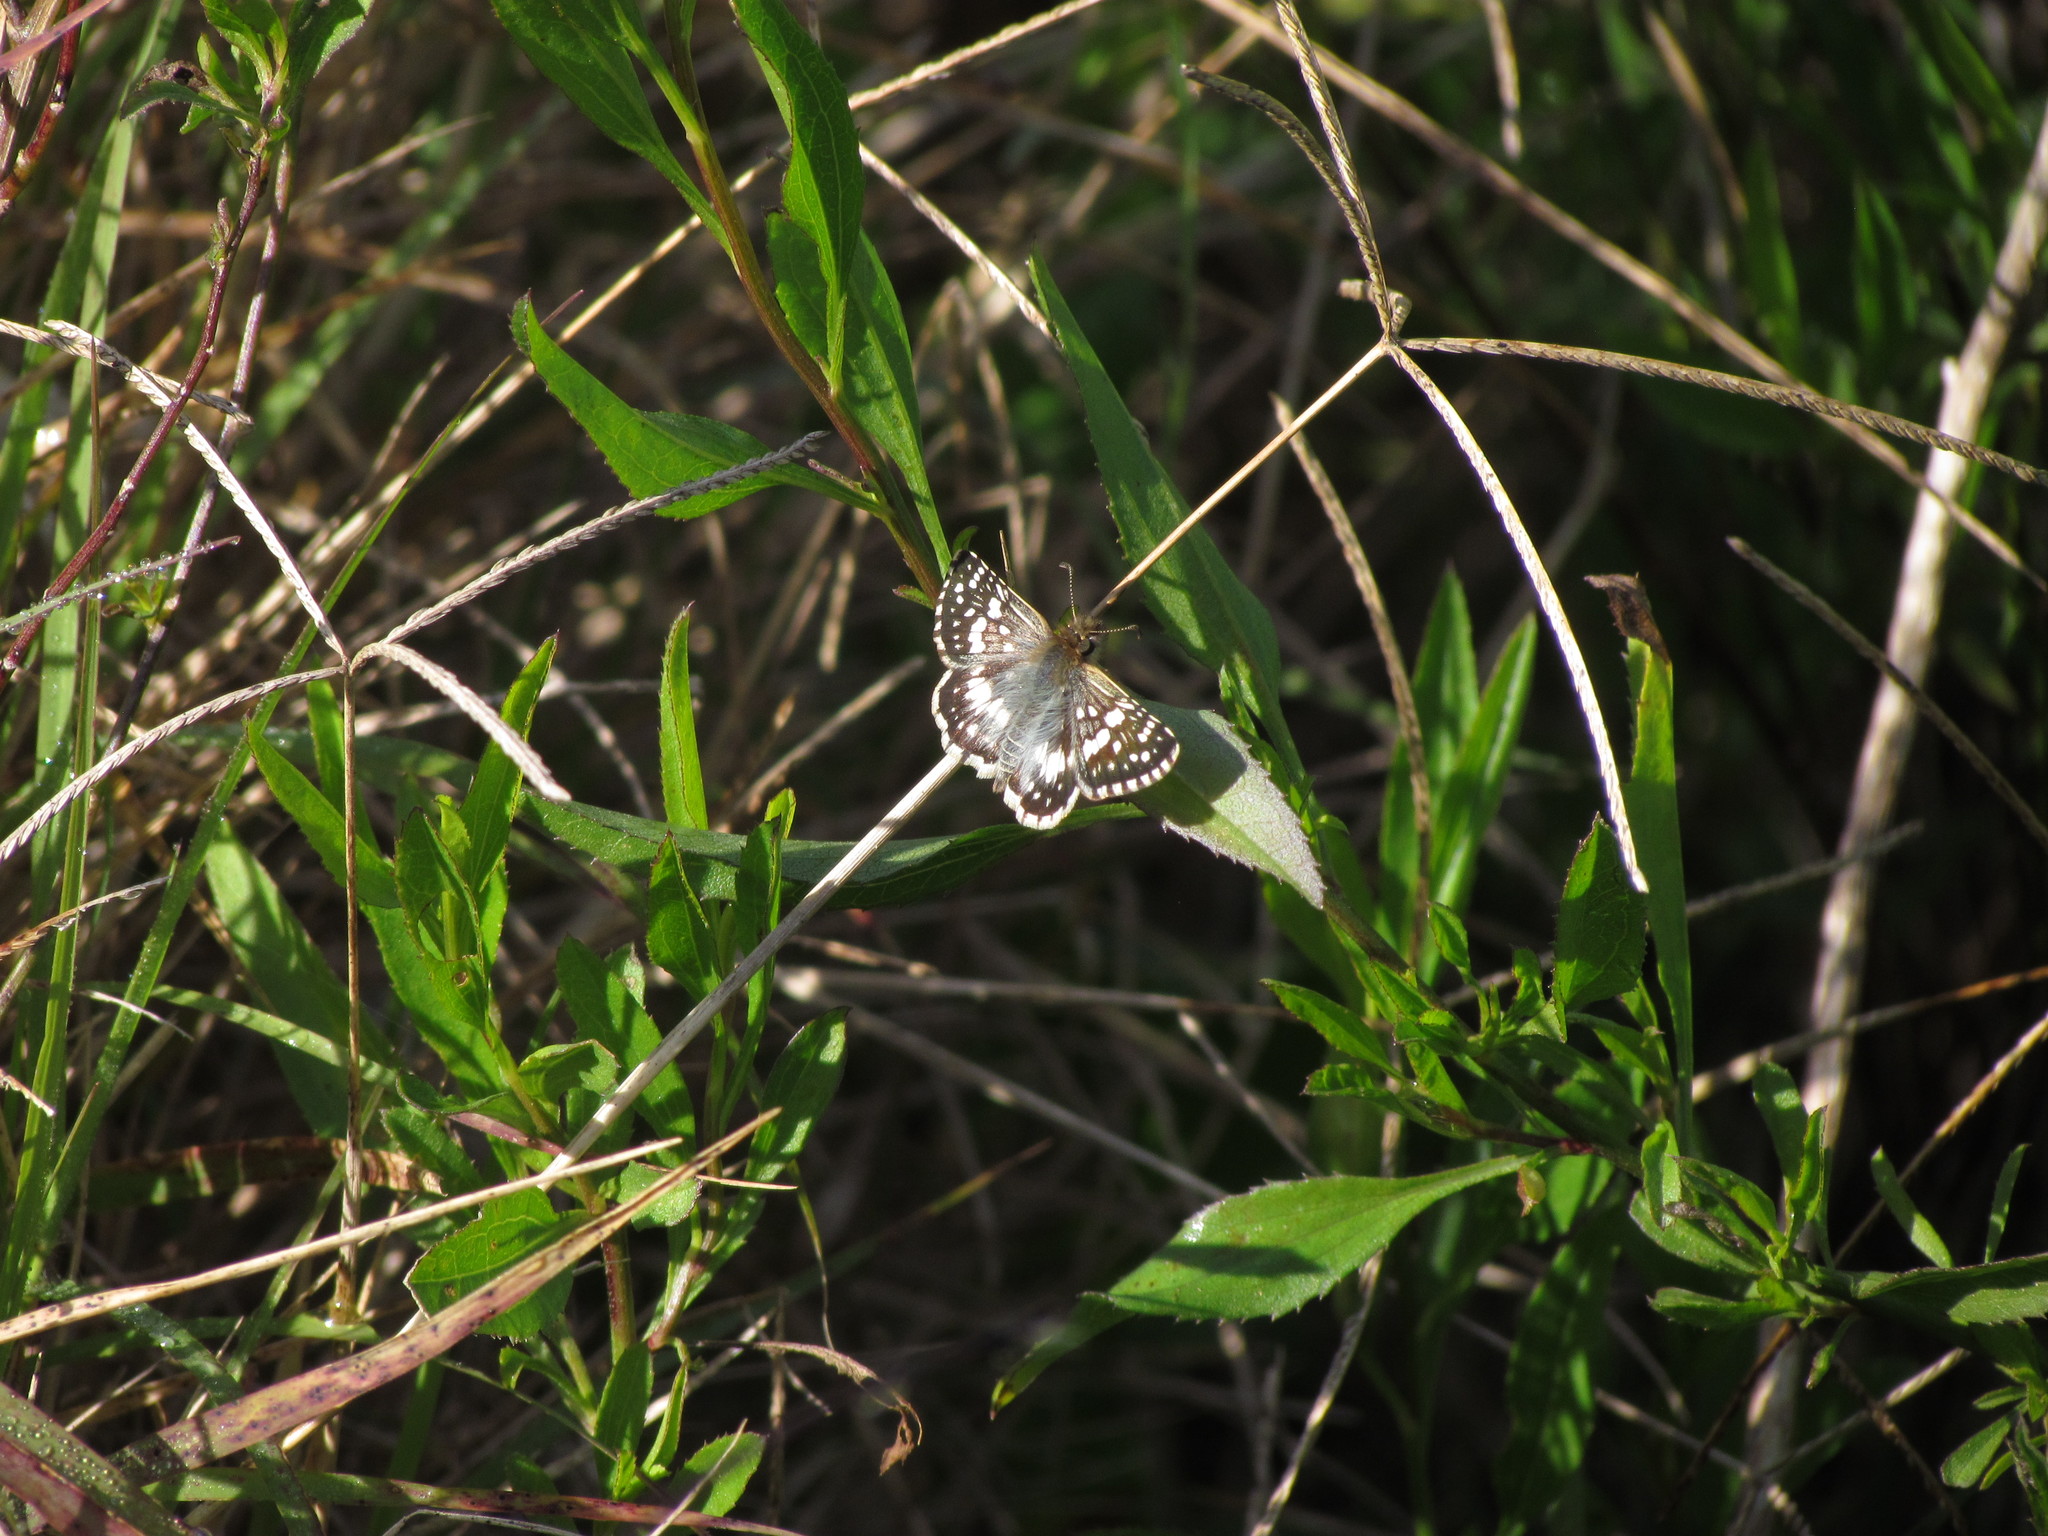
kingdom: Animalia
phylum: Arthropoda
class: Insecta
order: Lepidoptera
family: Hesperiidae
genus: Burnsius
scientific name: Burnsius orcynoides
